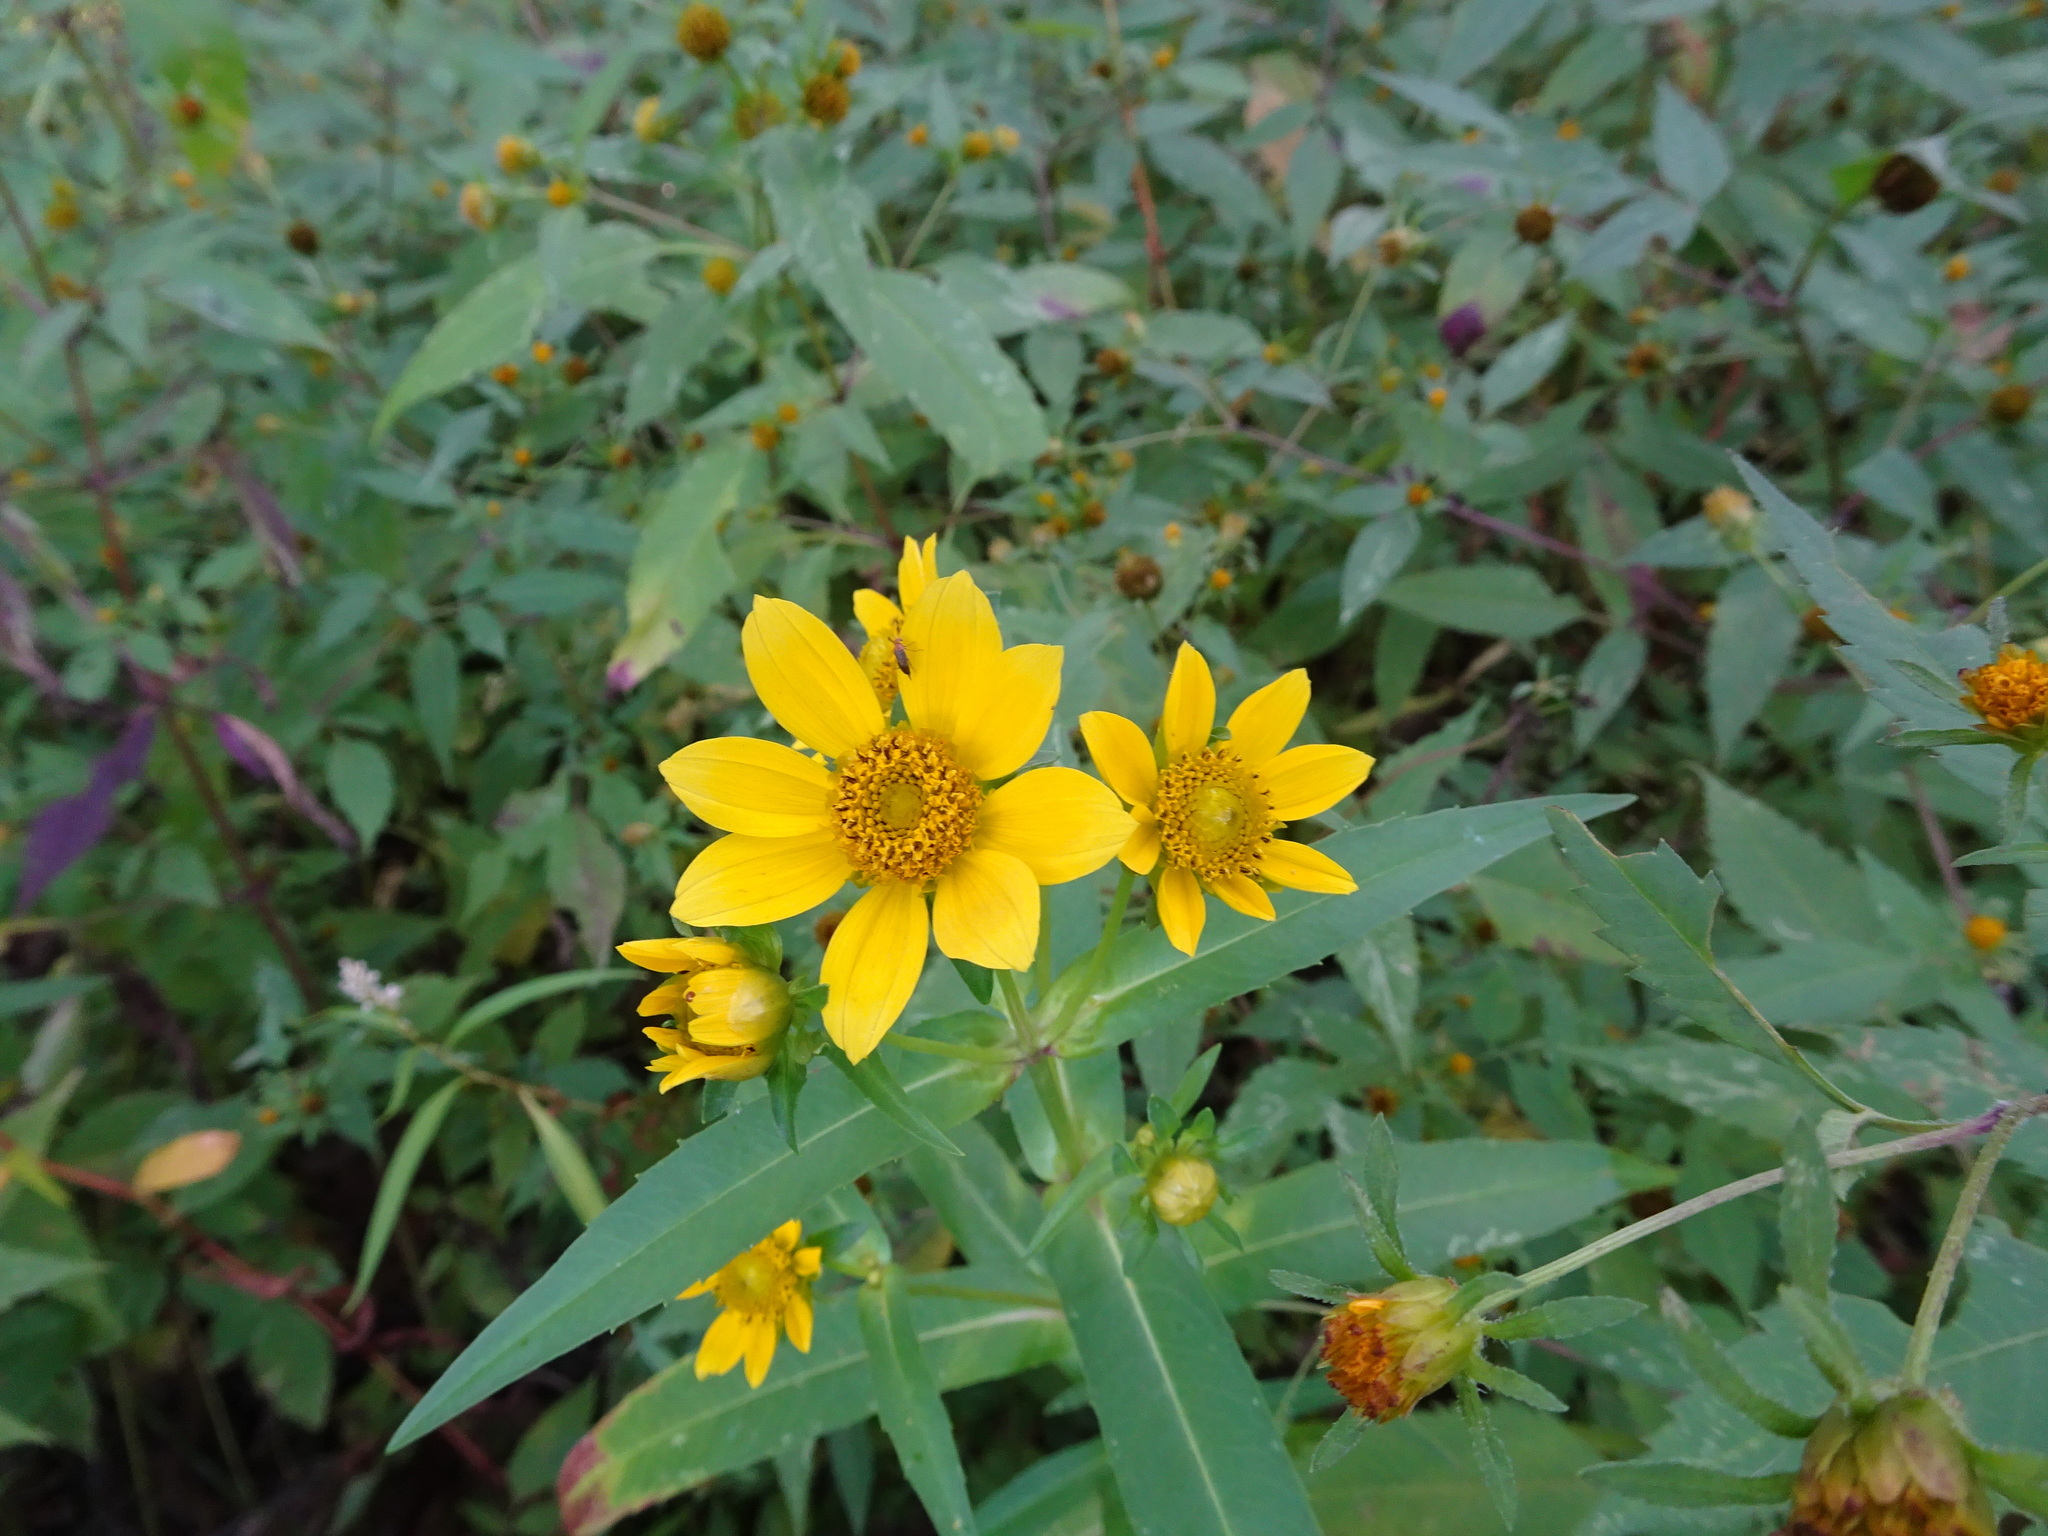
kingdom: Plantae
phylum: Tracheophyta
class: Magnoliopsida
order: Asterales
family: Asteraceae
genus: Bidens
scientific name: Bidens cernua
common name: Nodding bur-marigold
